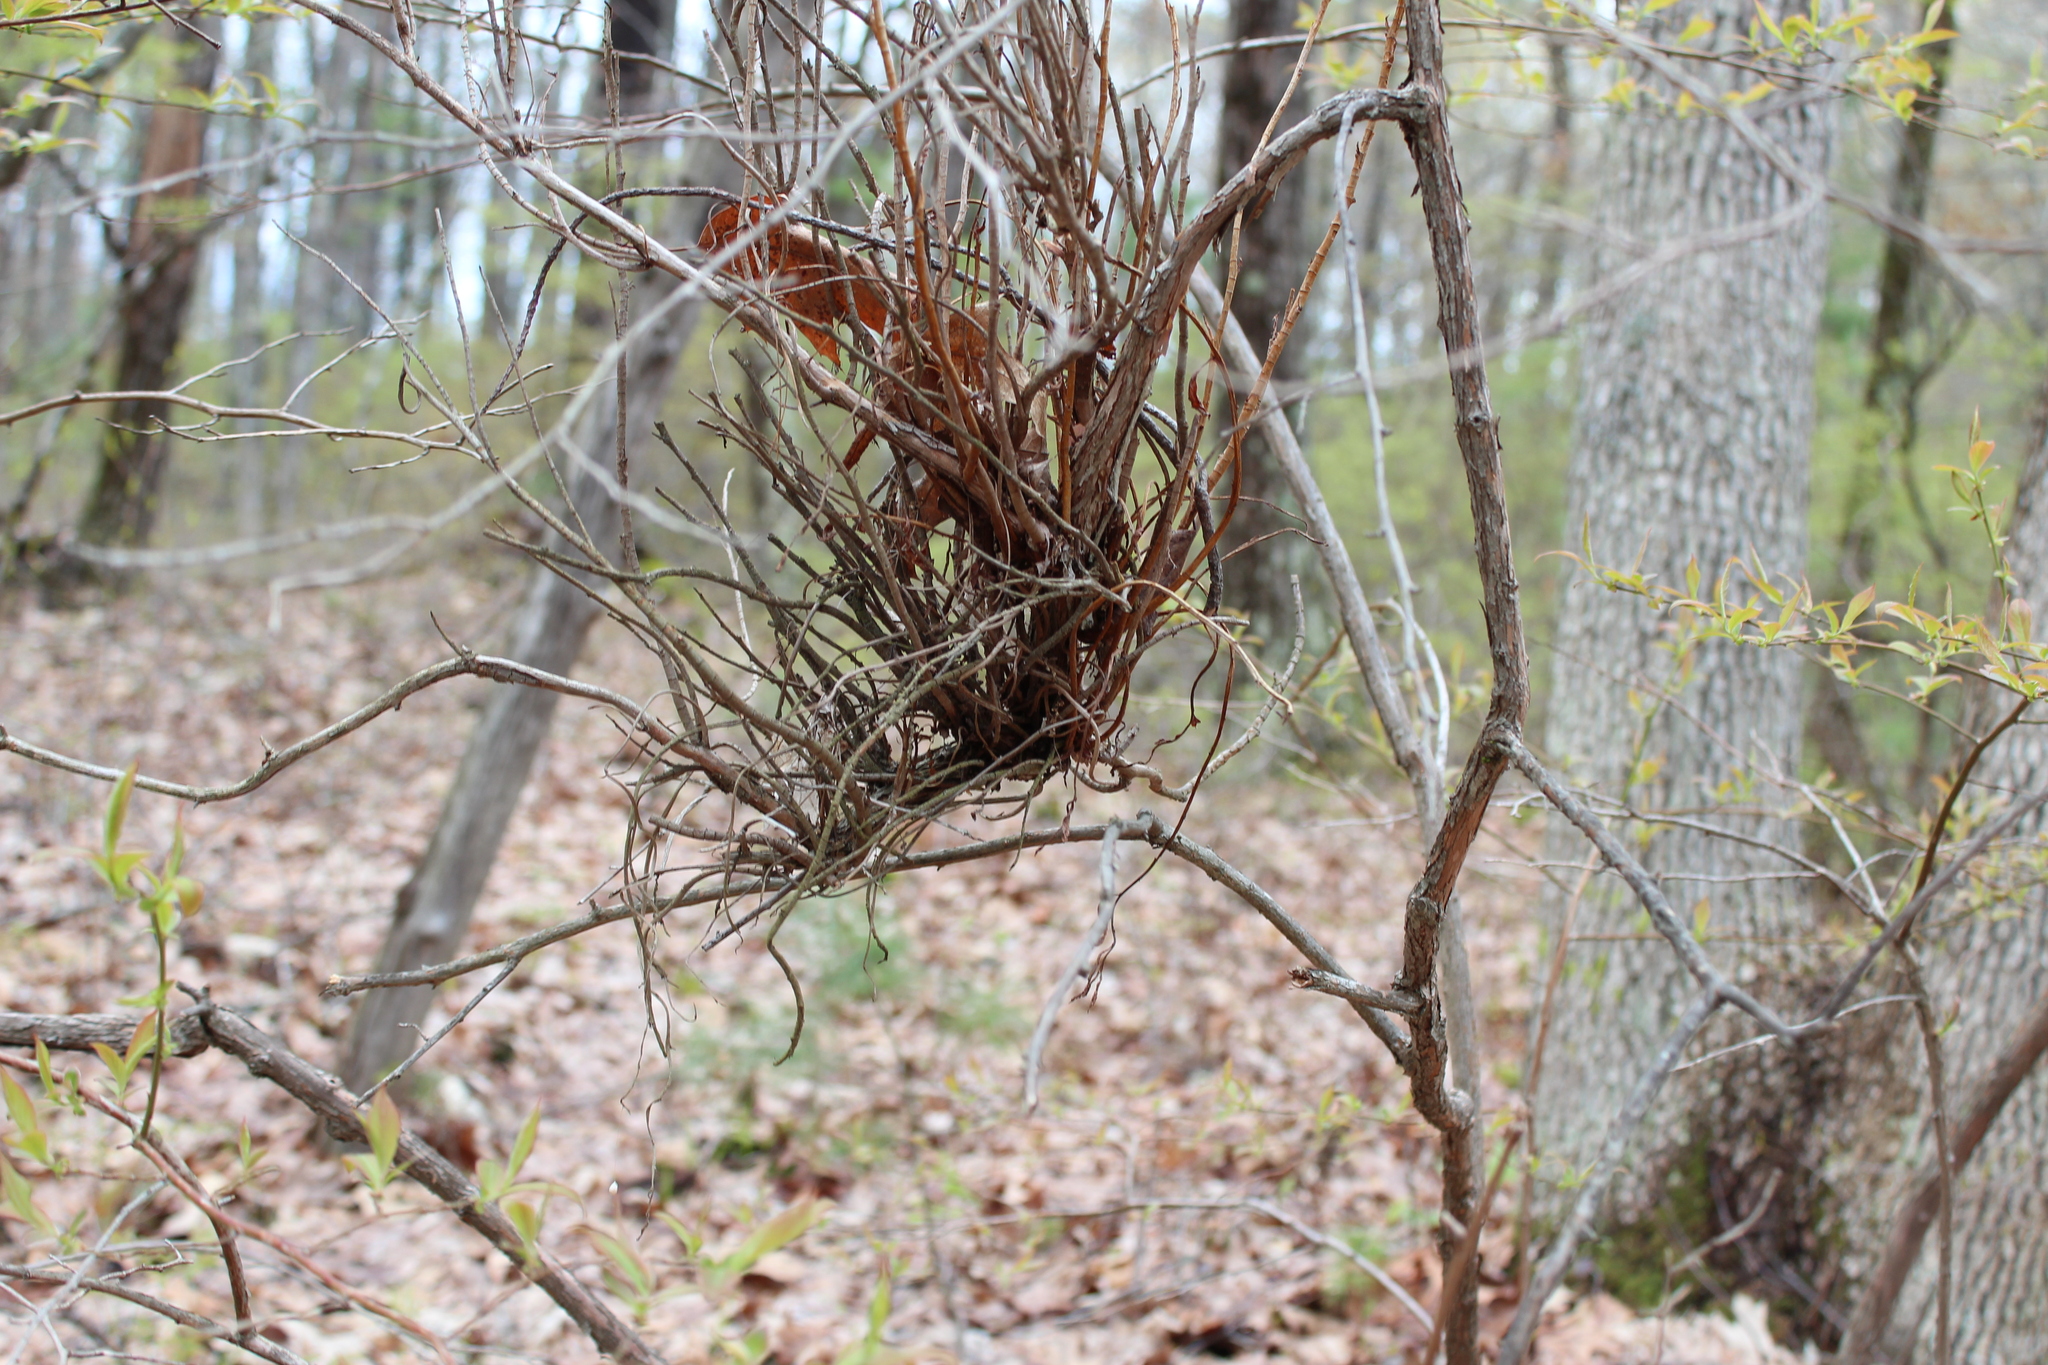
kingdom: Fungi
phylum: Basidiomycota
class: Pucciniomycetes
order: Pucciniales
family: Pucciniastraceae
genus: Calyptospora
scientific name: Calyptospora columnaris
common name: Huckleberry broom rust fungus
